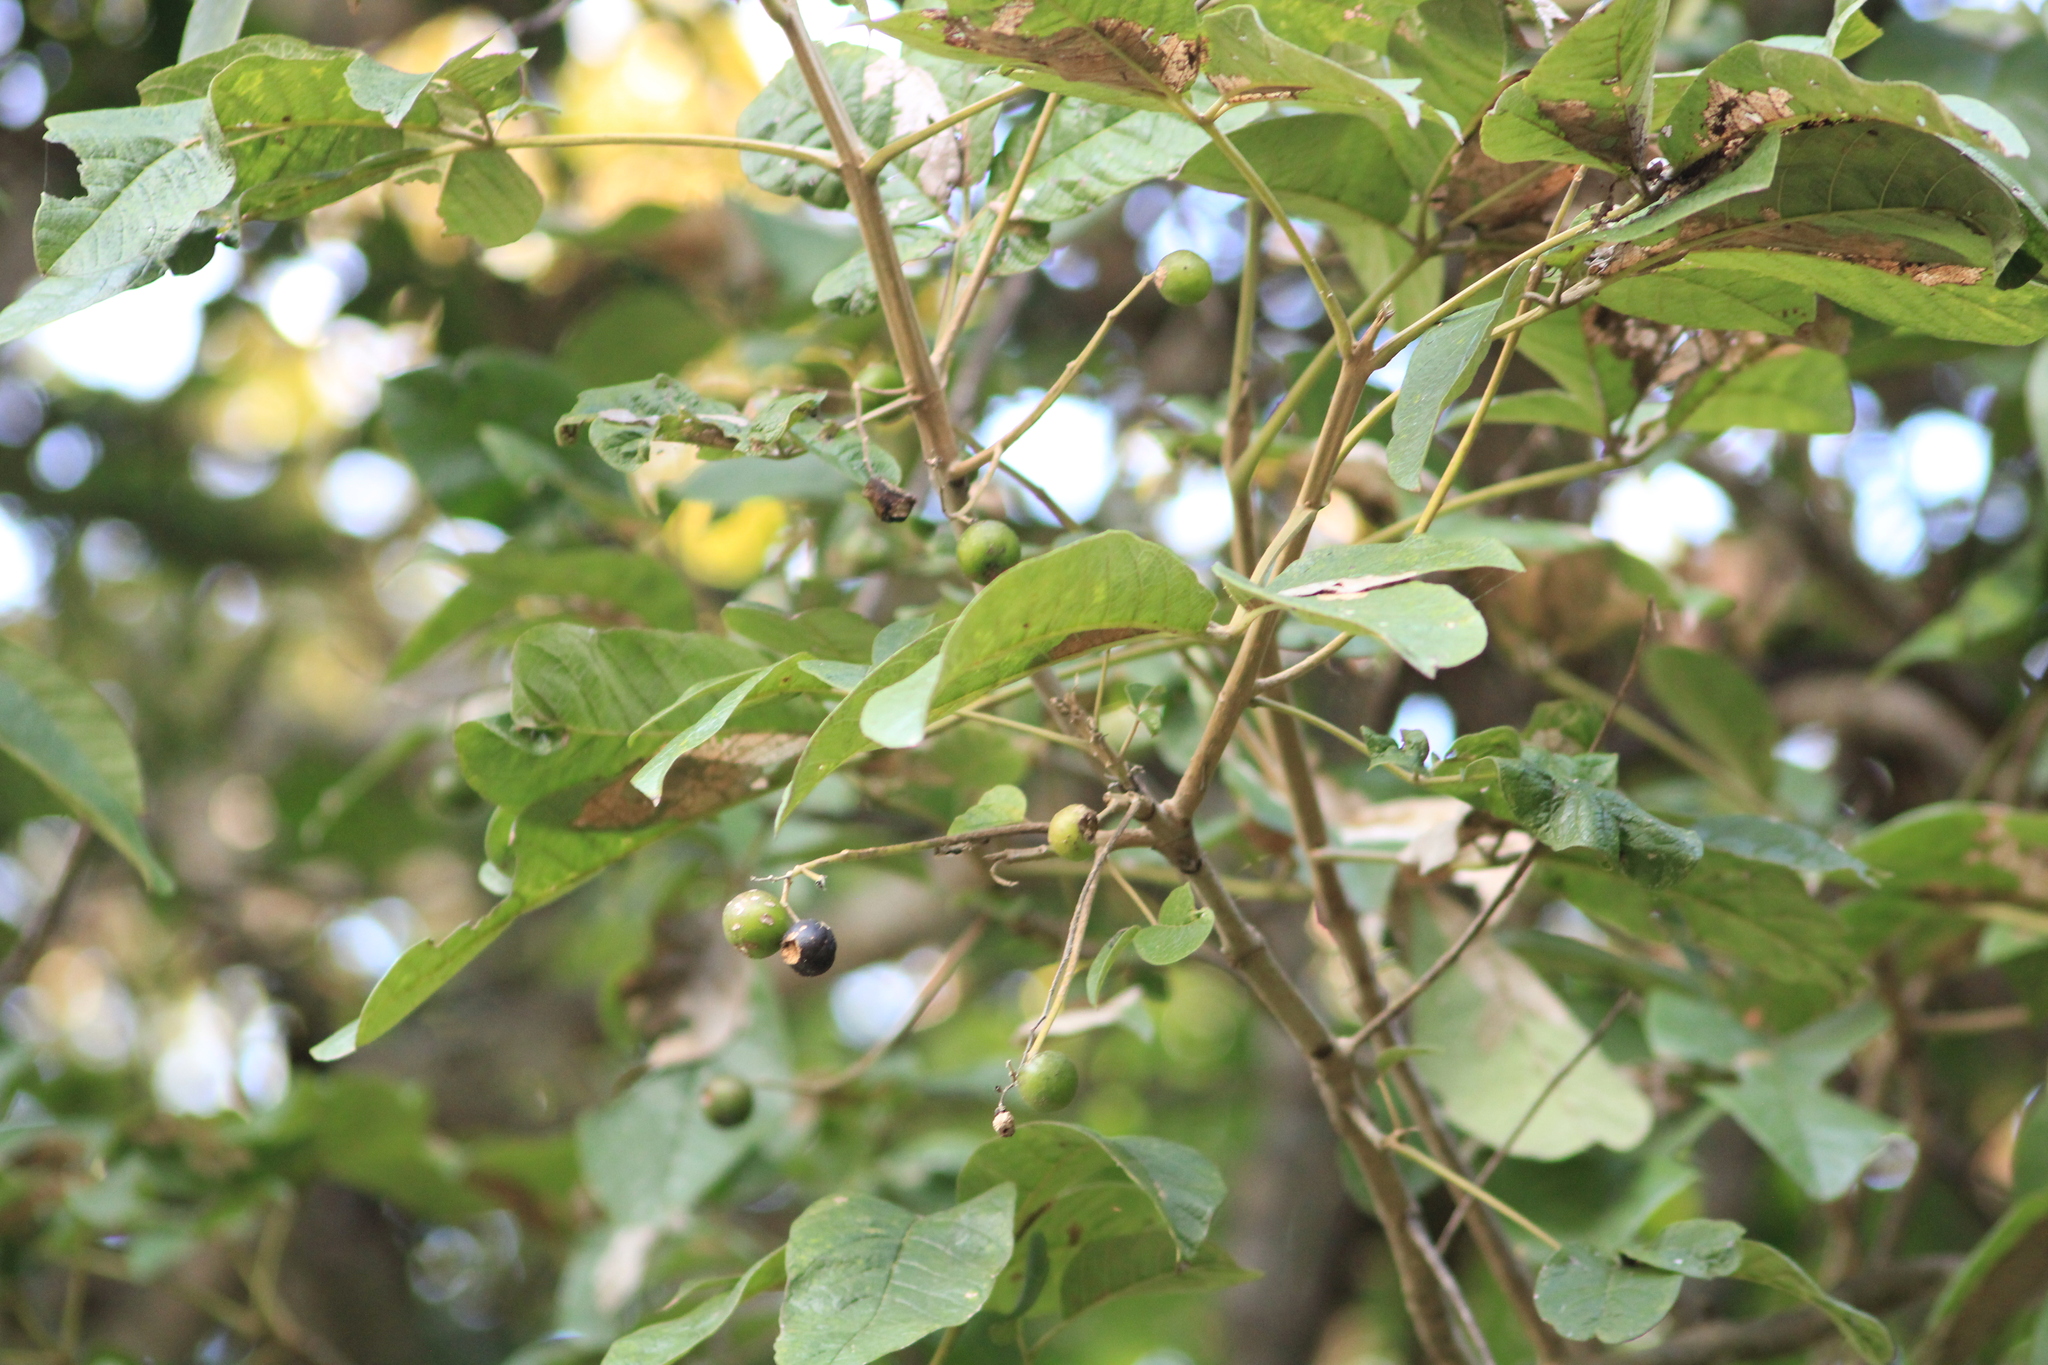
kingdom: Plantae
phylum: Tracheophyta
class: Magnoliopsida
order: Lamiales
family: Lamiaceae
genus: Vitex
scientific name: Vitex pyramidata
